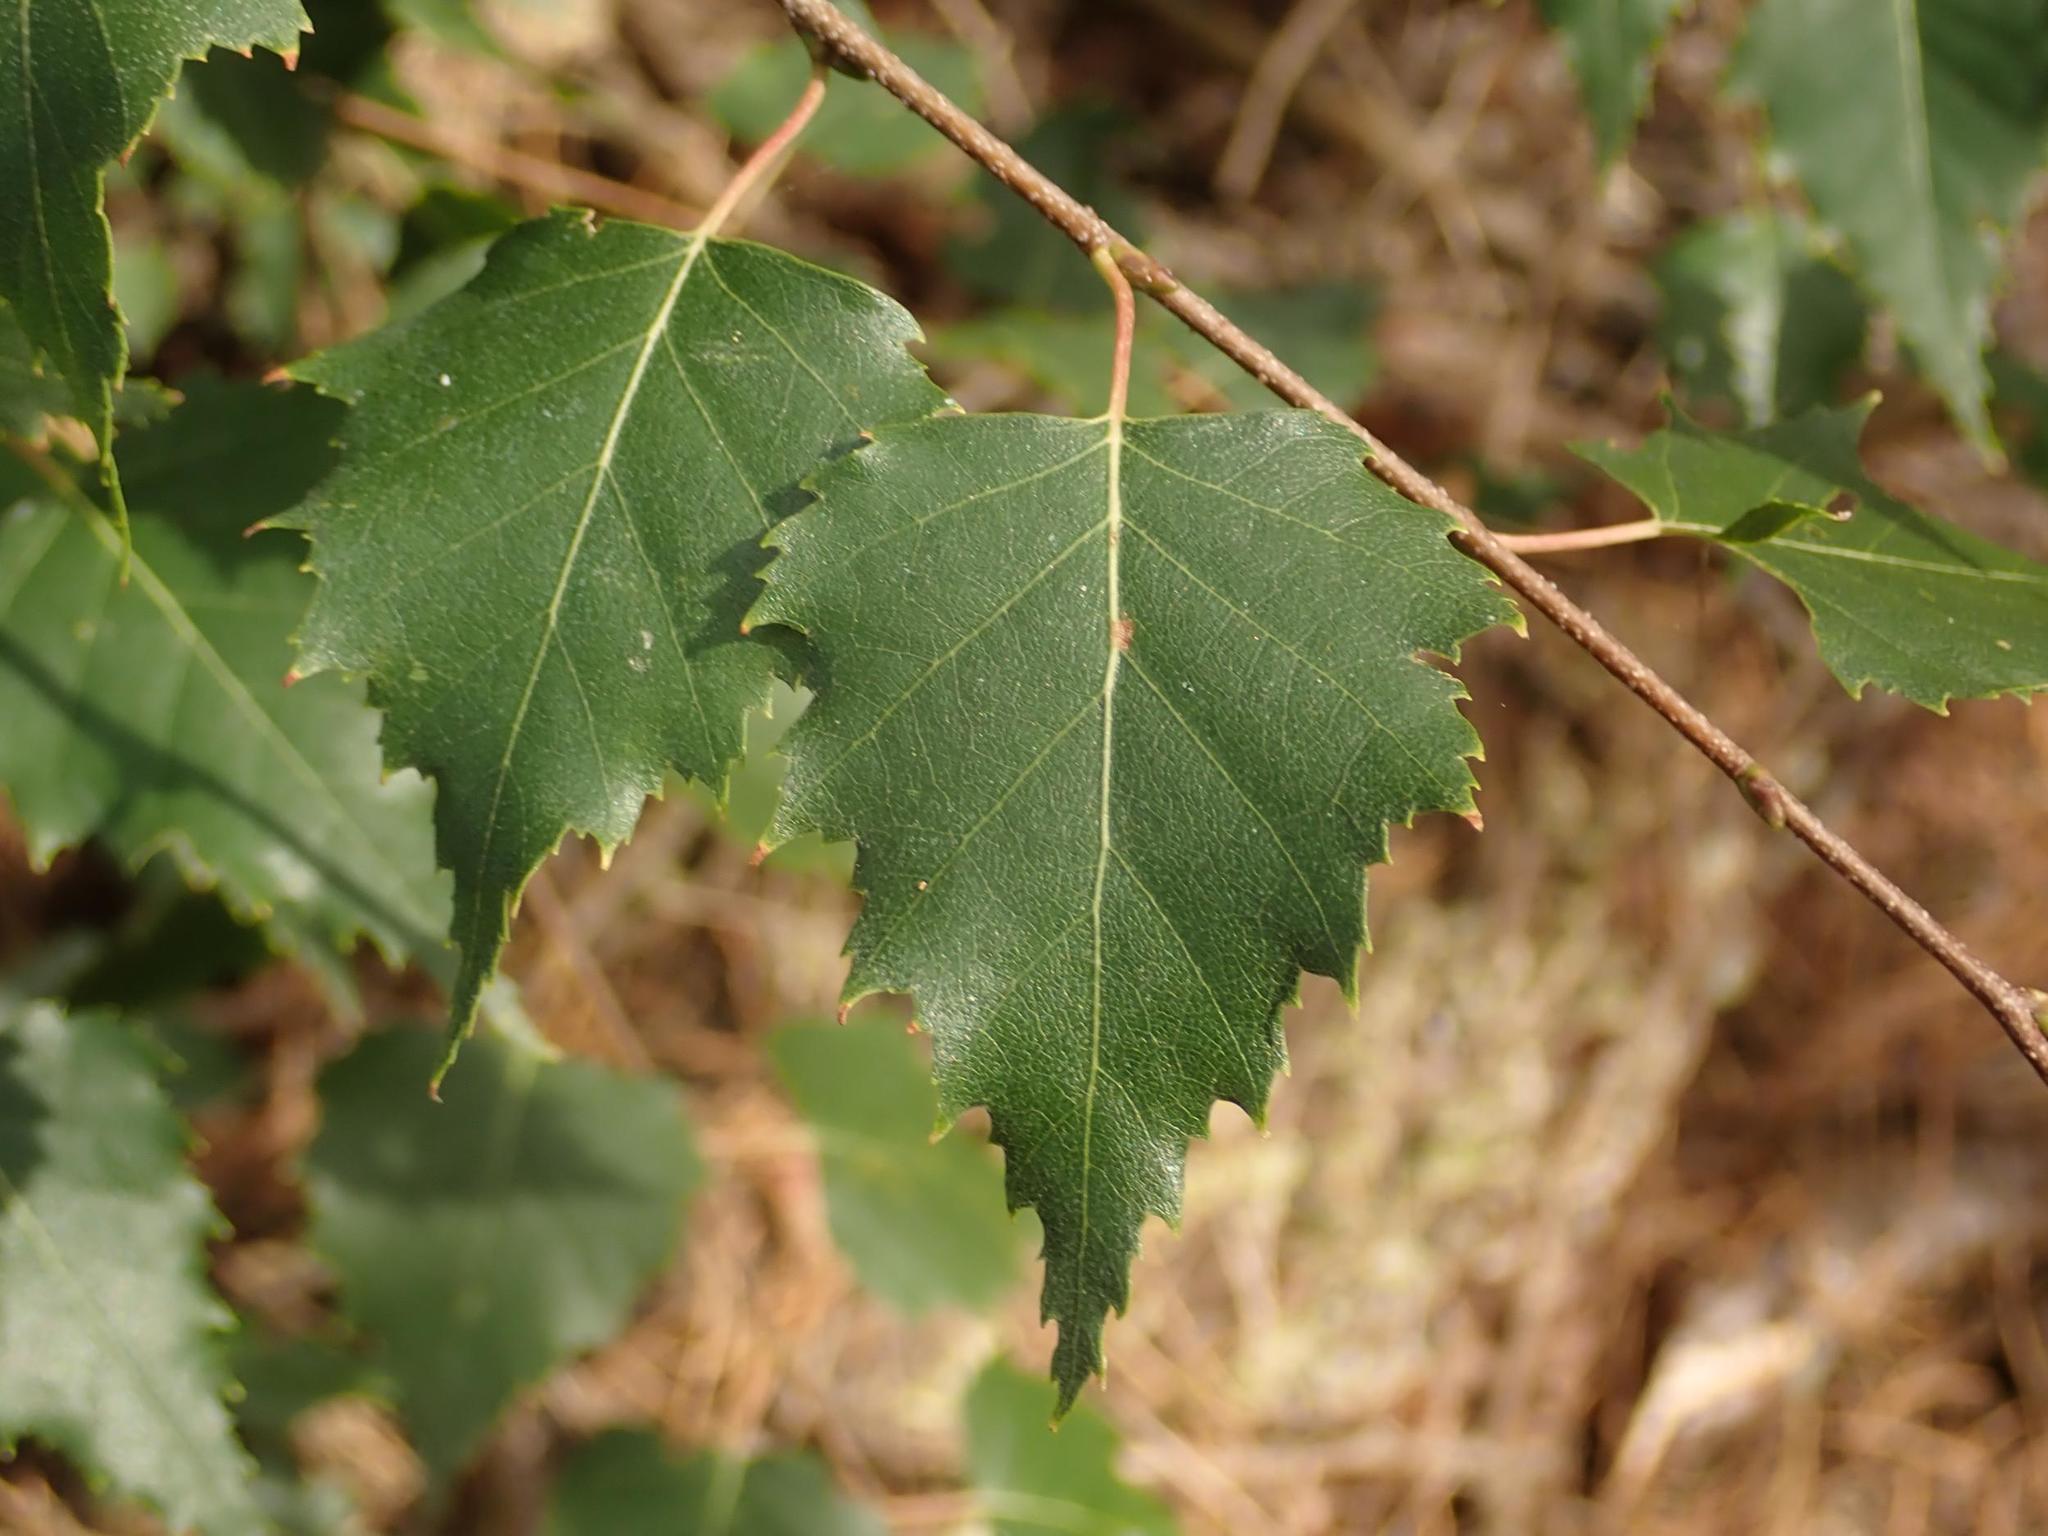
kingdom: Plantae
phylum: Tracheophyta
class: Magnoliopsida
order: Fagales
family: Betulaceae
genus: Betula
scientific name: Betula pendula
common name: Silver birch
